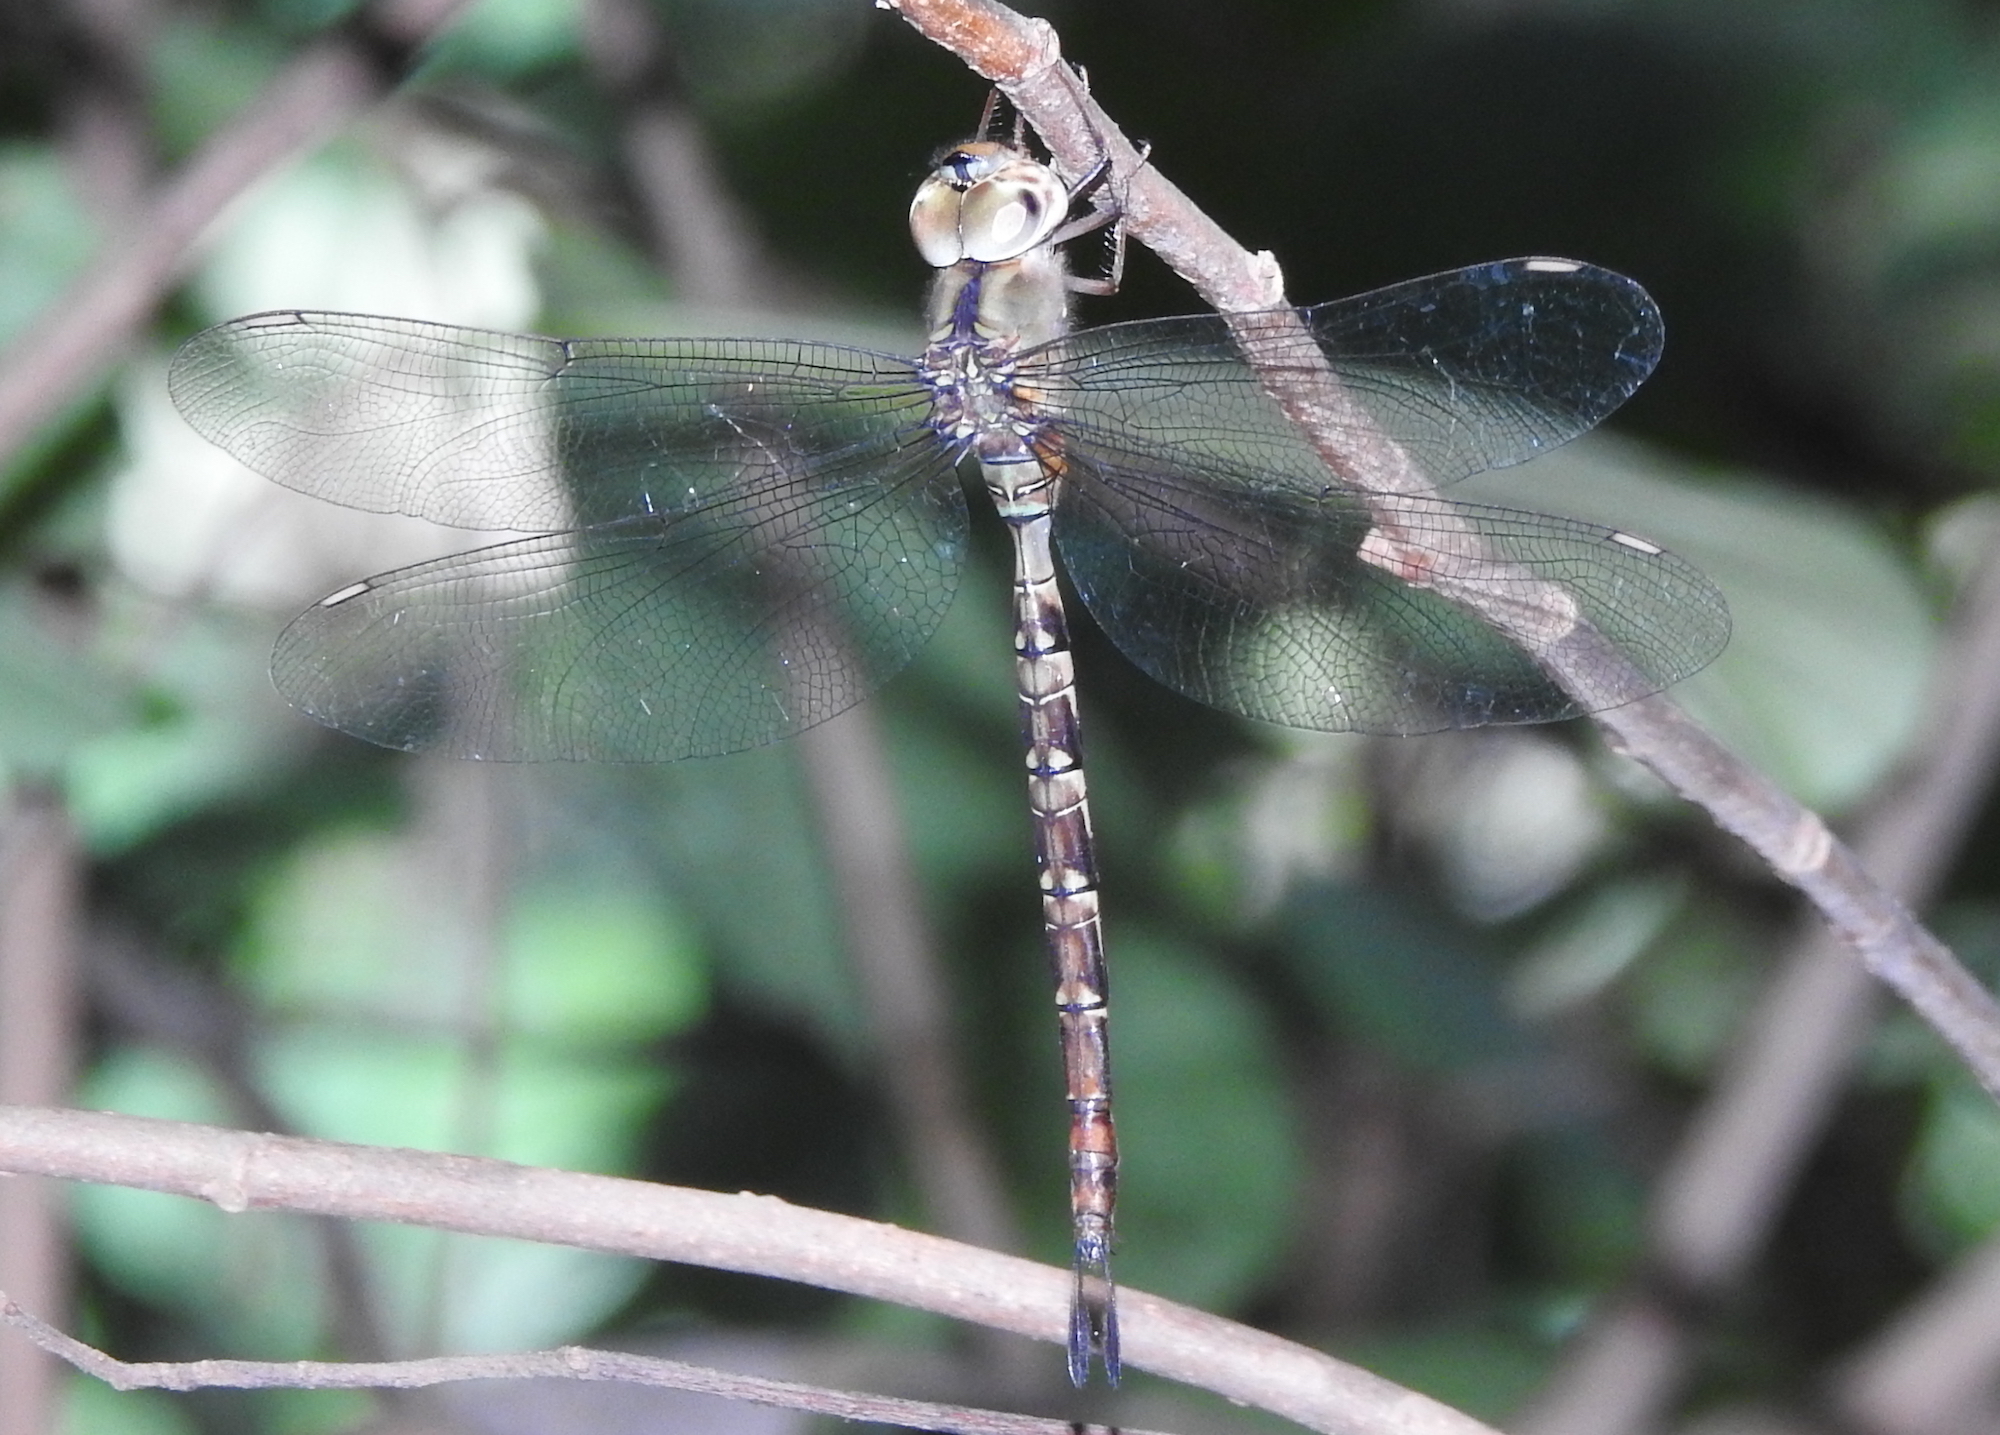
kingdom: Animalia
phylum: Arthropoda
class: Insecta
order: Odonata
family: Aeshnidae
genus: Gynacantha
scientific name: Gynacantha subinterrupta
